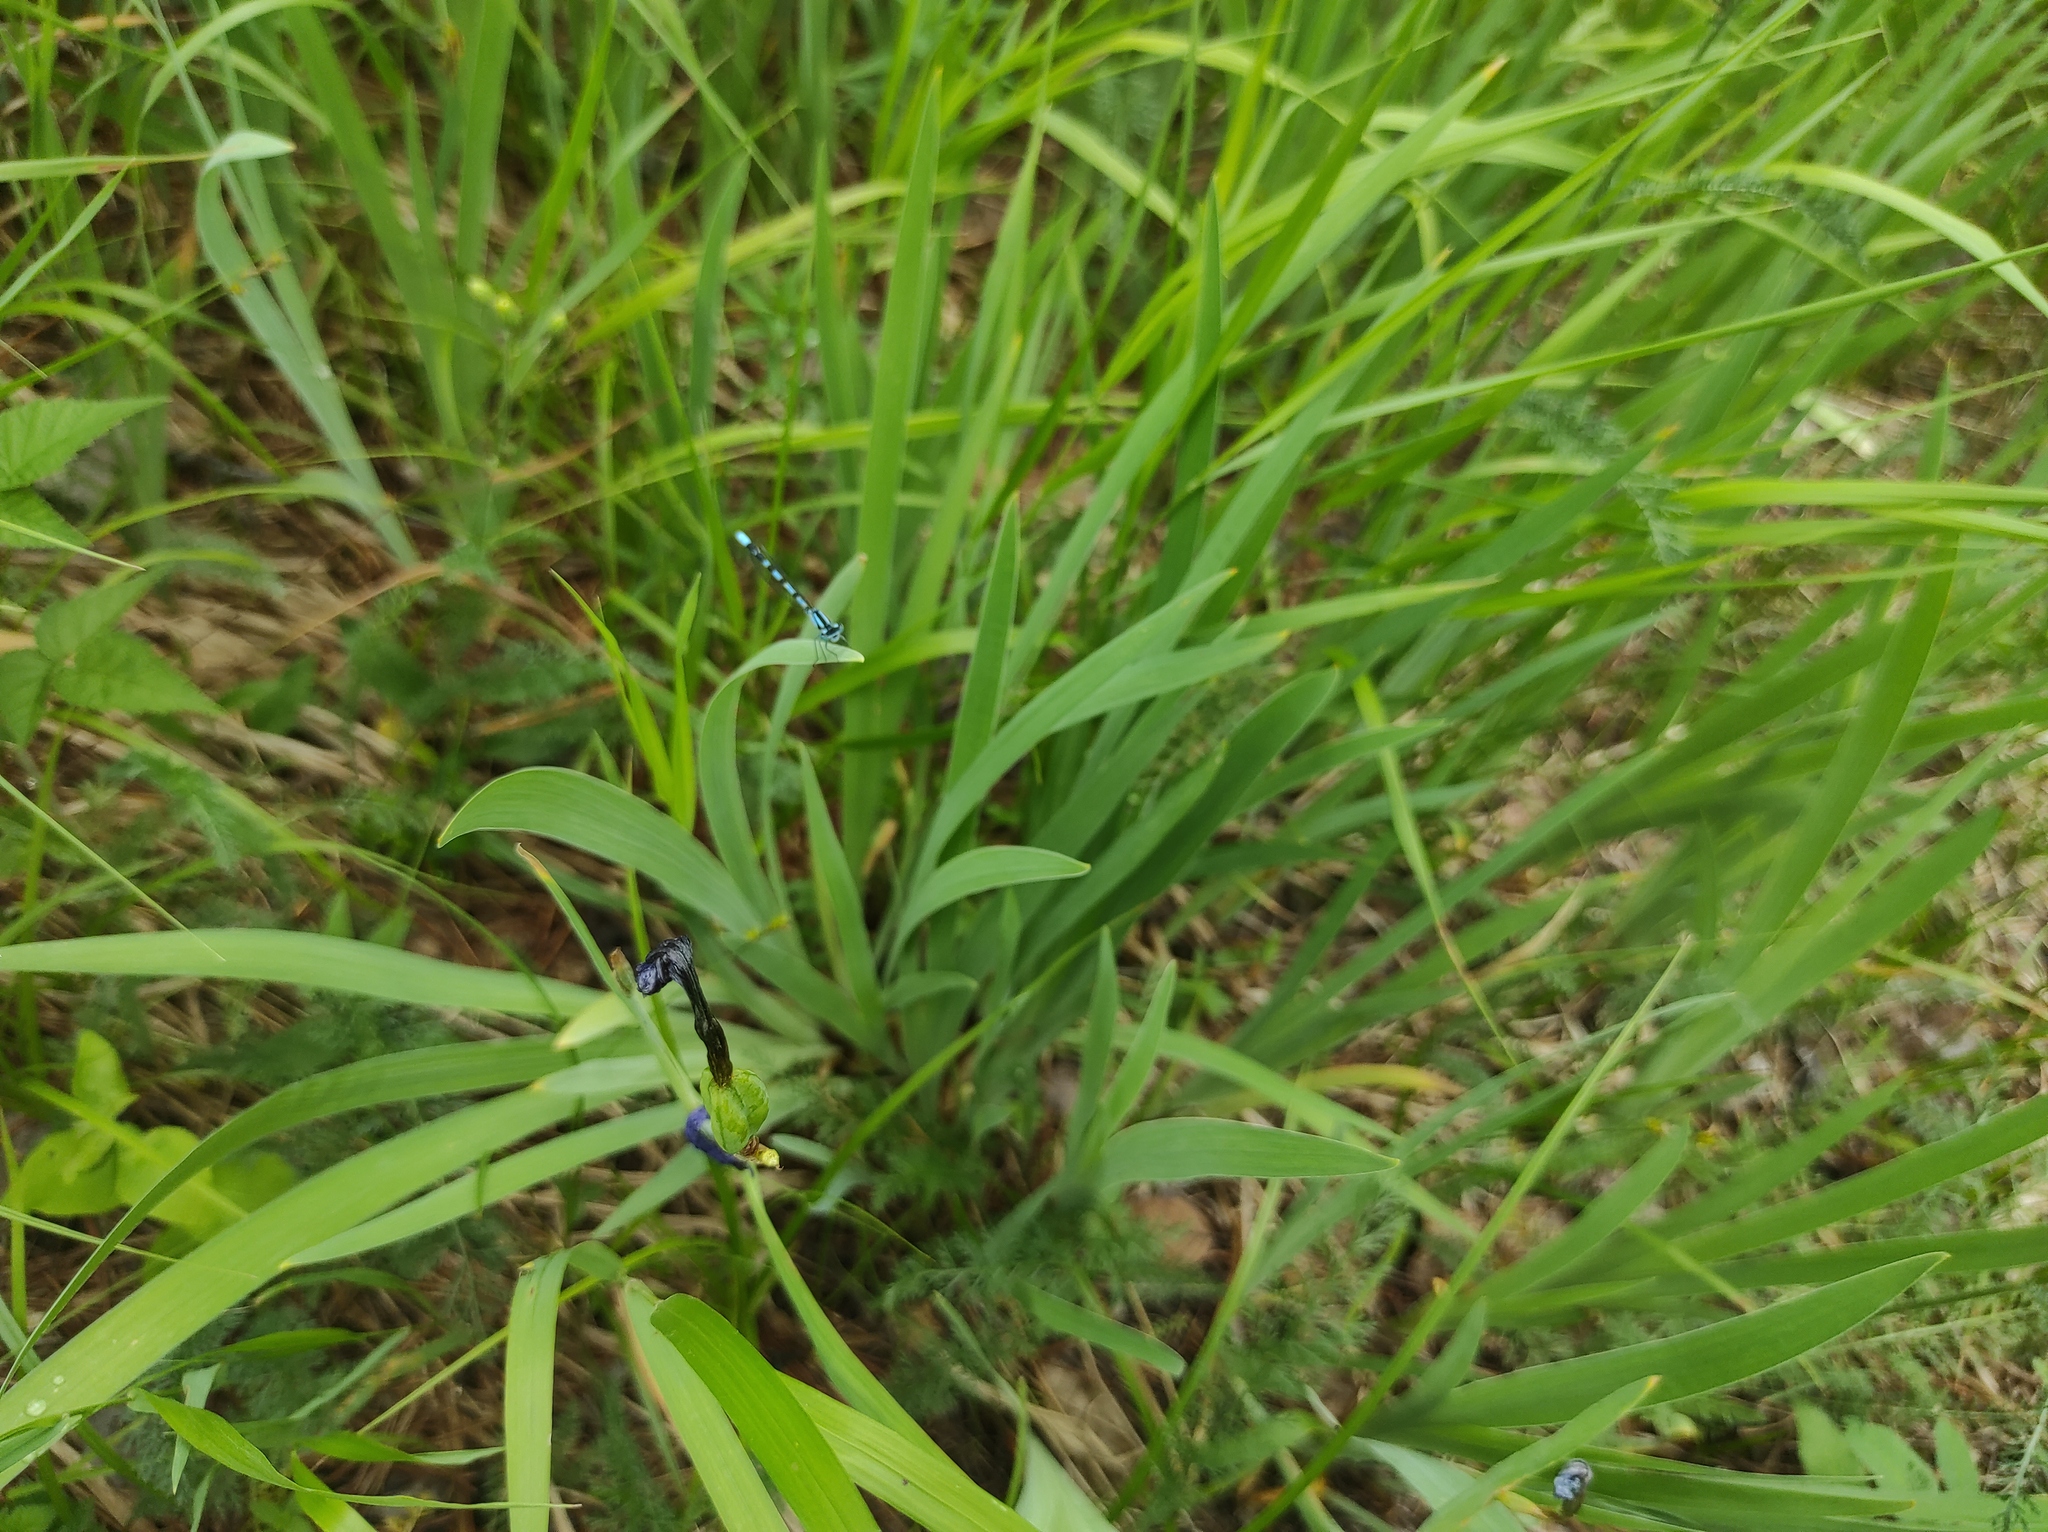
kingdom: Animalia
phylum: Arthropoda
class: Insecta
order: Odonata
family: Coenagrionidae
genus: Enallagma
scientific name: Enallagma cyathigerum
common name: Common blue damselfly
